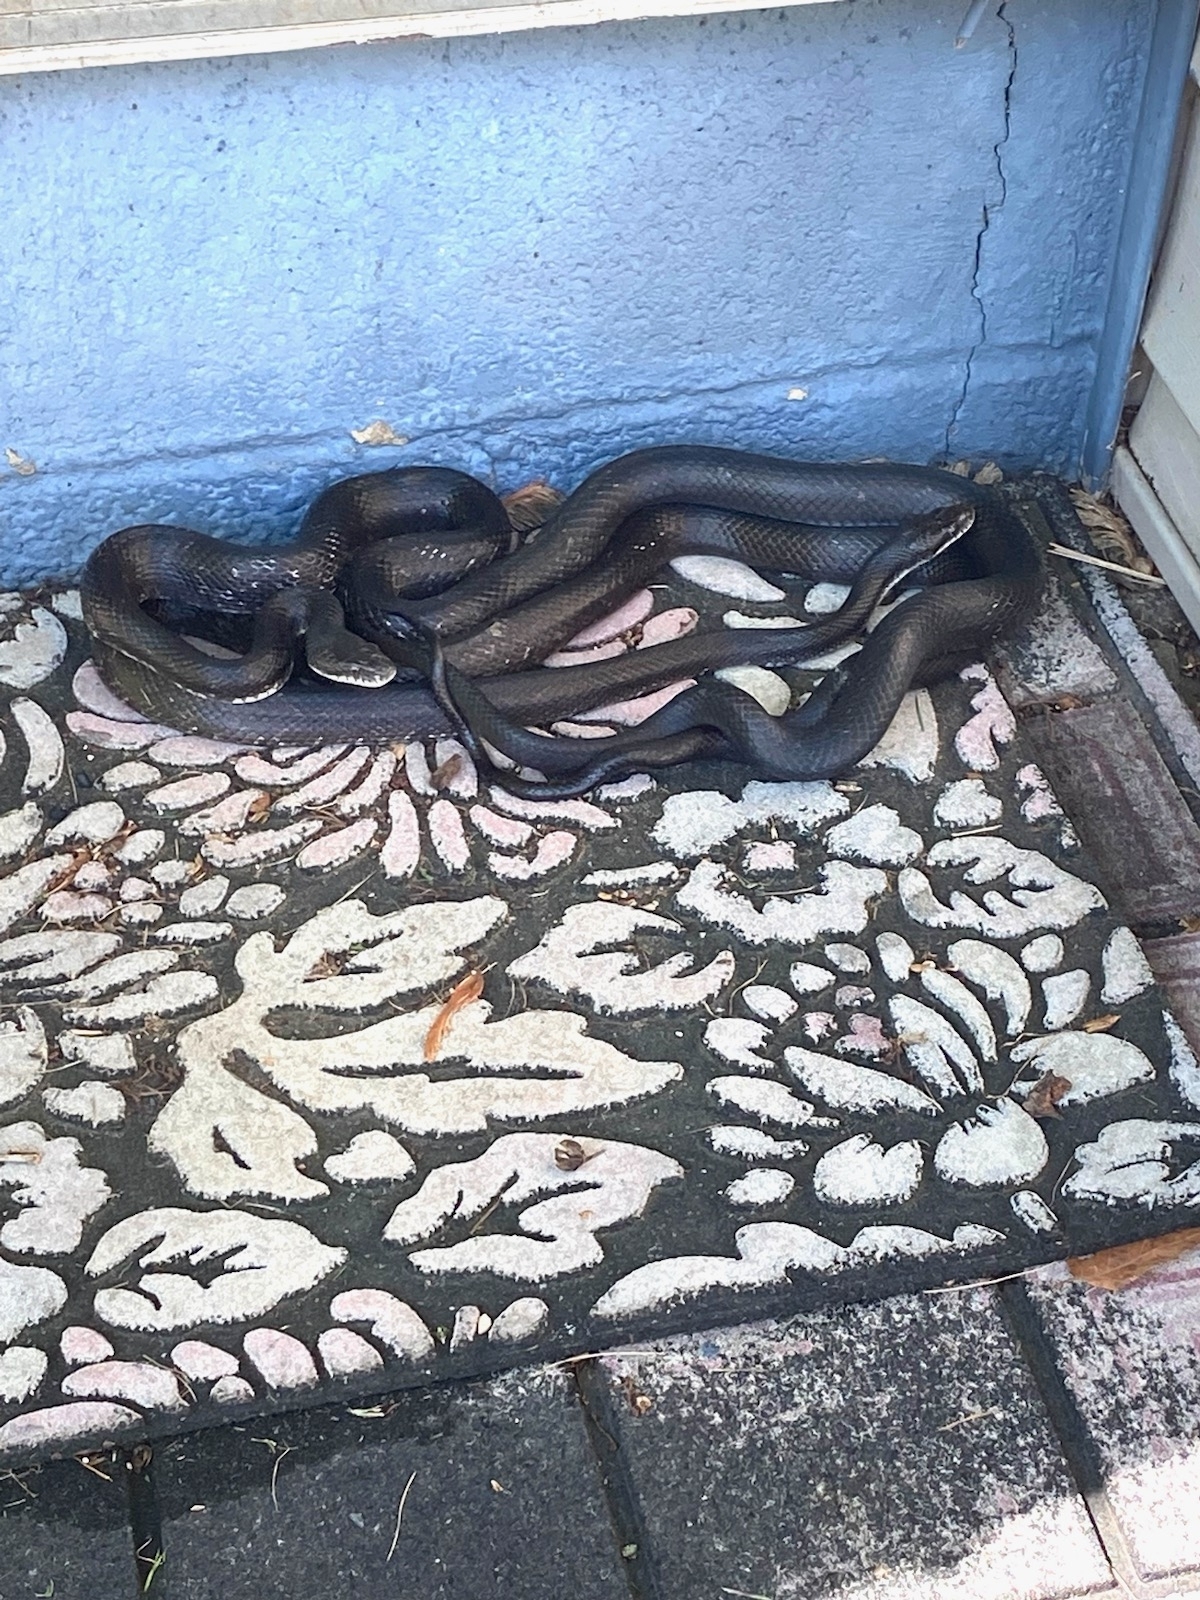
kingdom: Animalia
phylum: Chordata
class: Squamata
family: Colubridae
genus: Pantherophis
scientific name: Pantherophis
